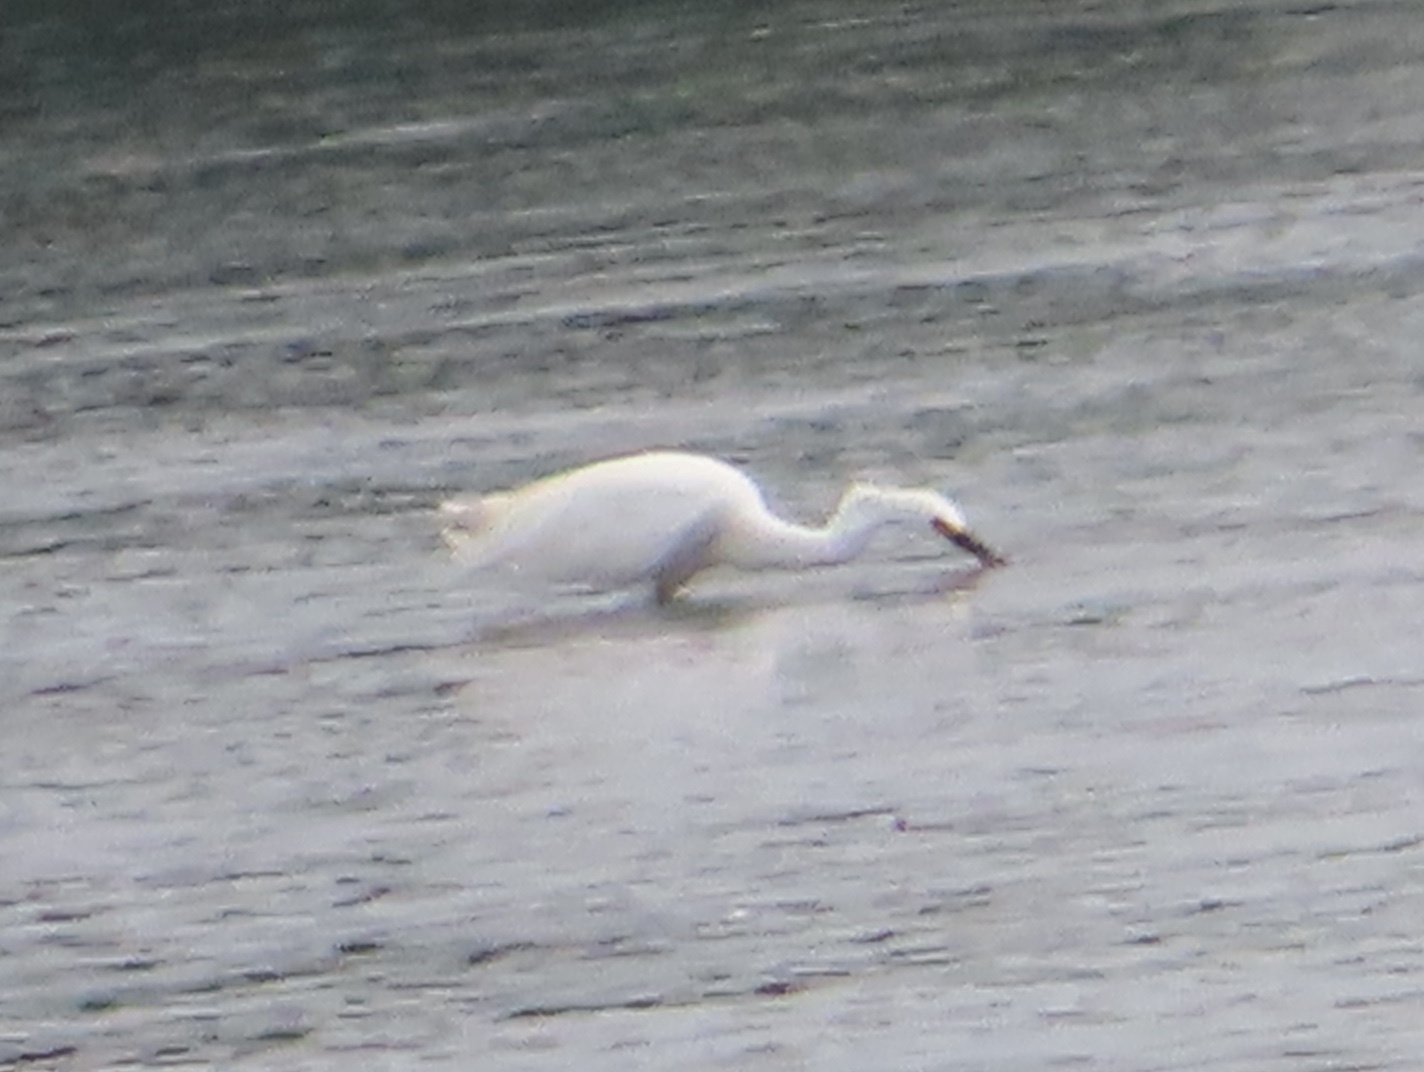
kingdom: Animalia
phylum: Chordata
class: Aves
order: Pelecaniformes
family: Ardeidae
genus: Egretta
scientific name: Egretta thula
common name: Snowy egret
